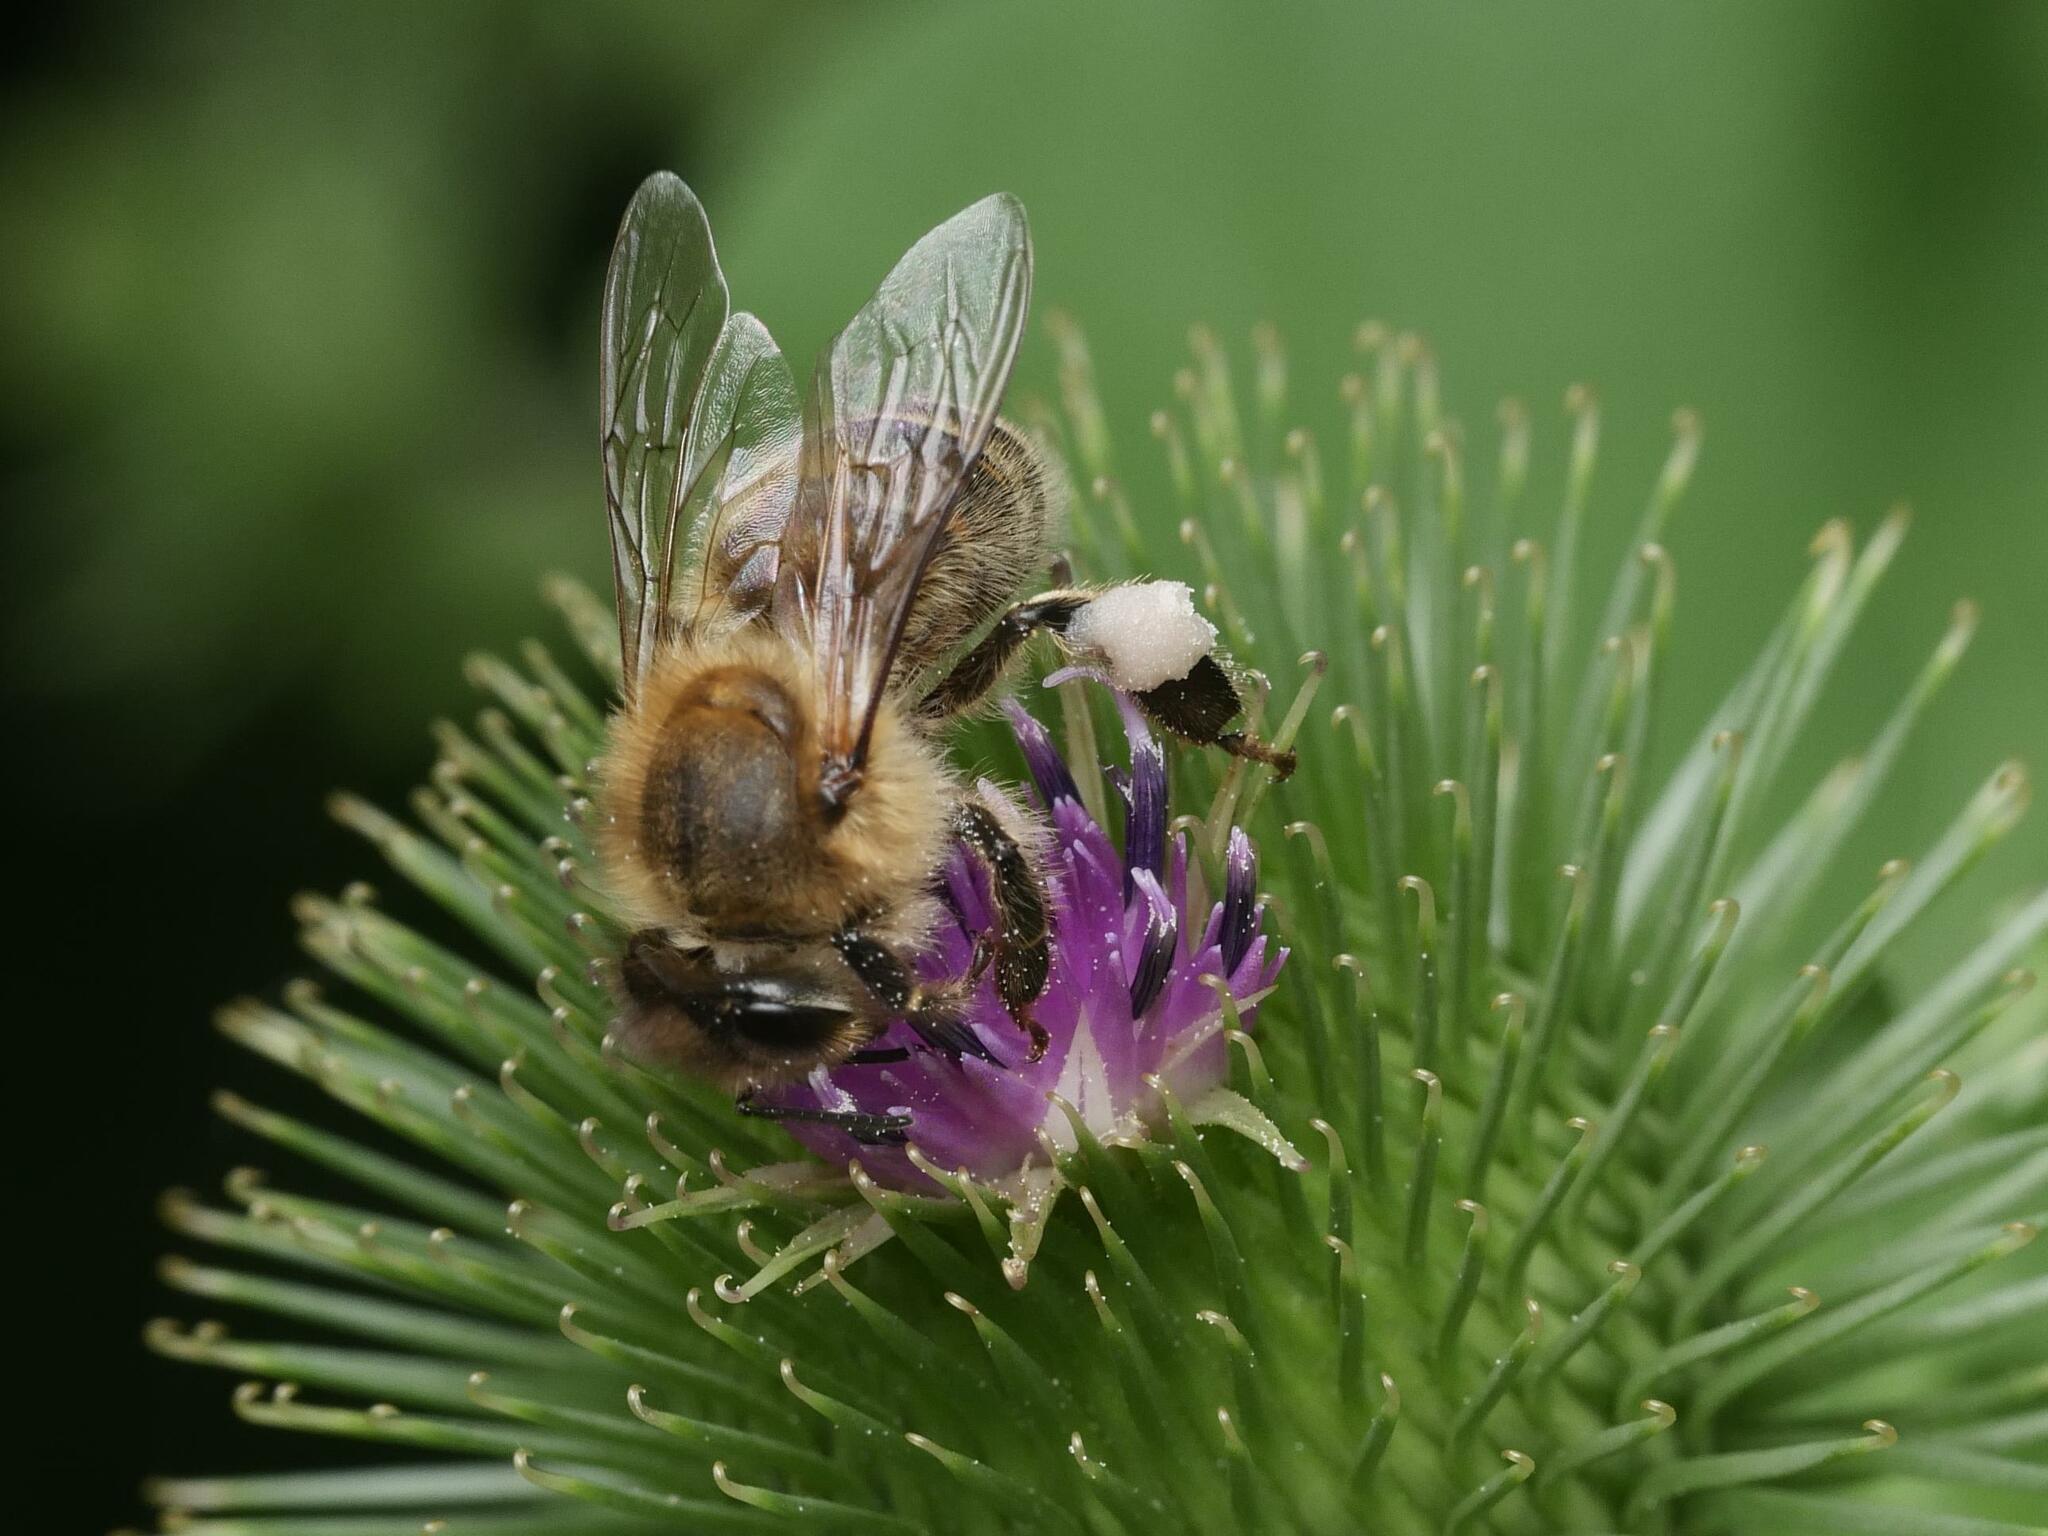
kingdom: Animalia
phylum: Arthropoda
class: Insecta
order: Hymenoptera
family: Apidae
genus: Apis
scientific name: Apis mellifera
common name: Honey bee
